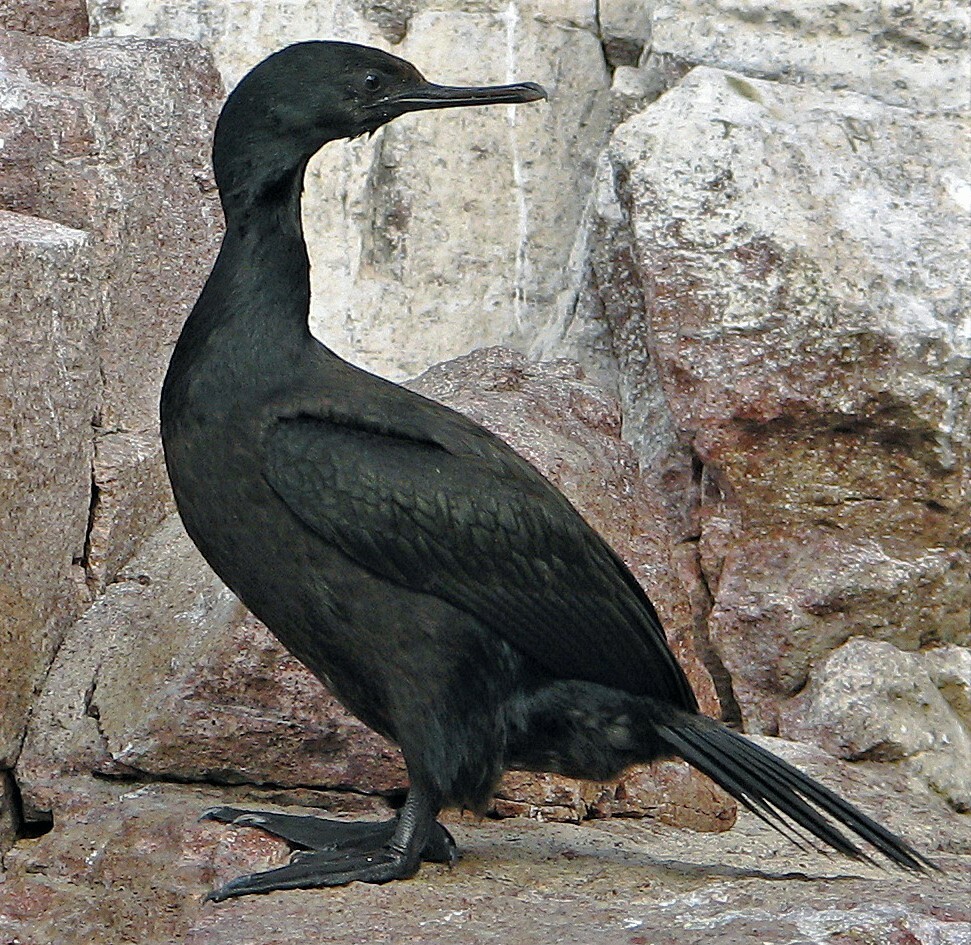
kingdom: Animalia
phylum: Chordata
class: Aves
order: Suliformes
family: Phalacrocoracidae
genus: Phalacrocorax
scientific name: Phalacrocorax magellanicus
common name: Rock shag
